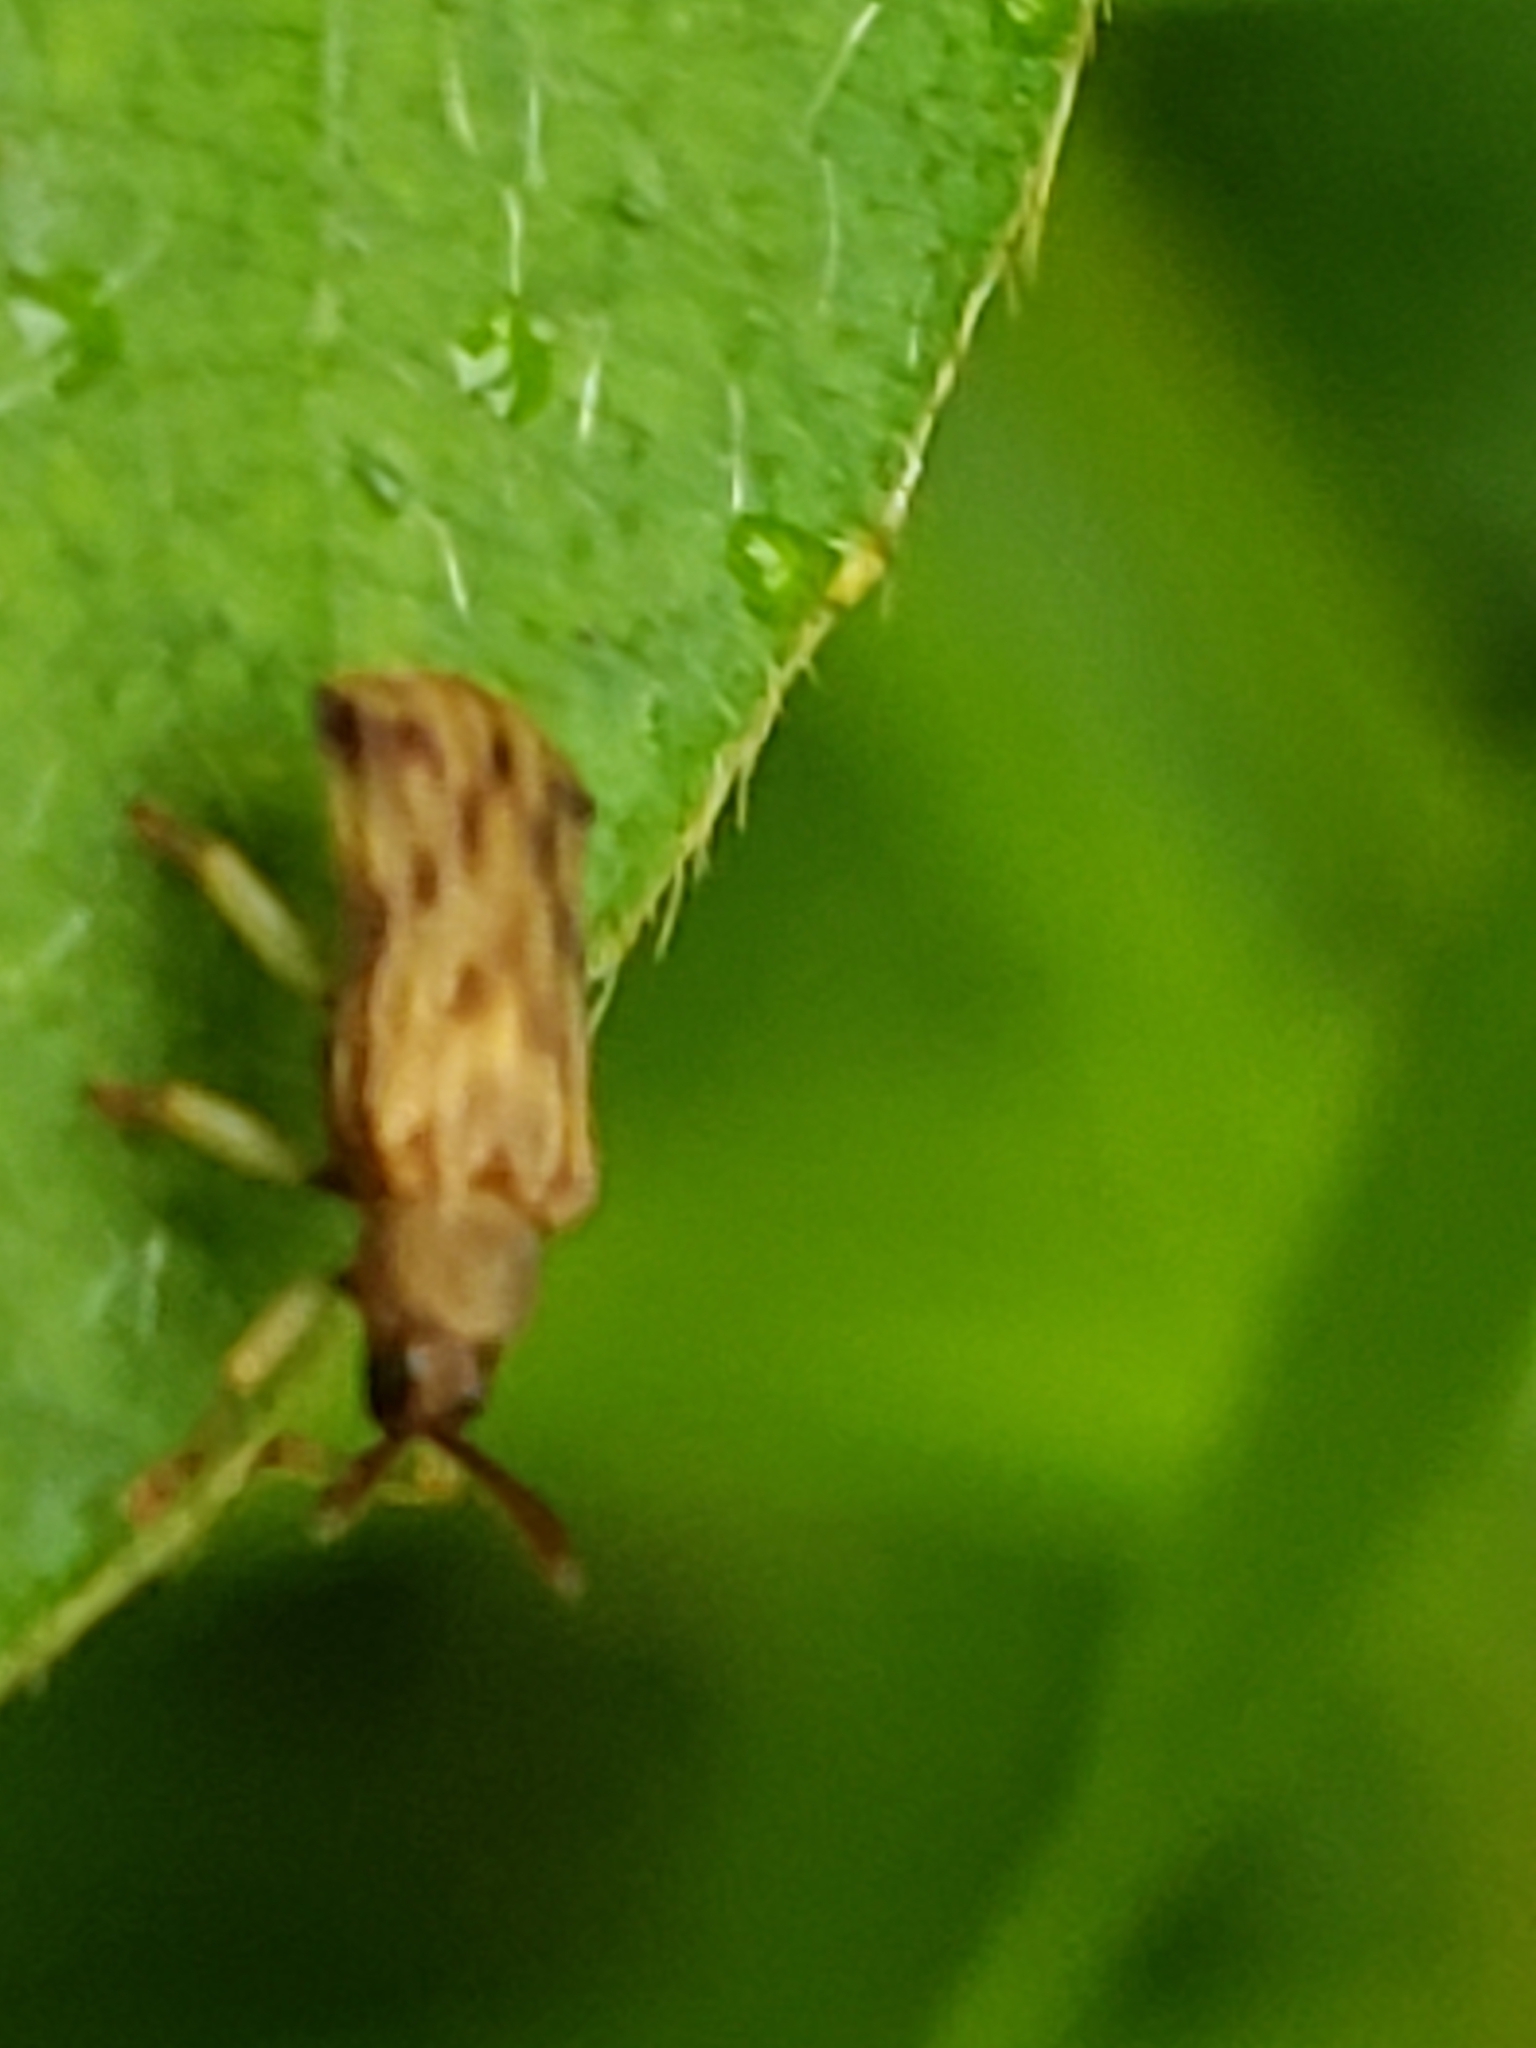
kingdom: Animalia
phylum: Arthropoda
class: Insecta
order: Coleoptera
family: Chrysomelidae
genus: Sumitrosis
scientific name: Sumitrosis rosea
